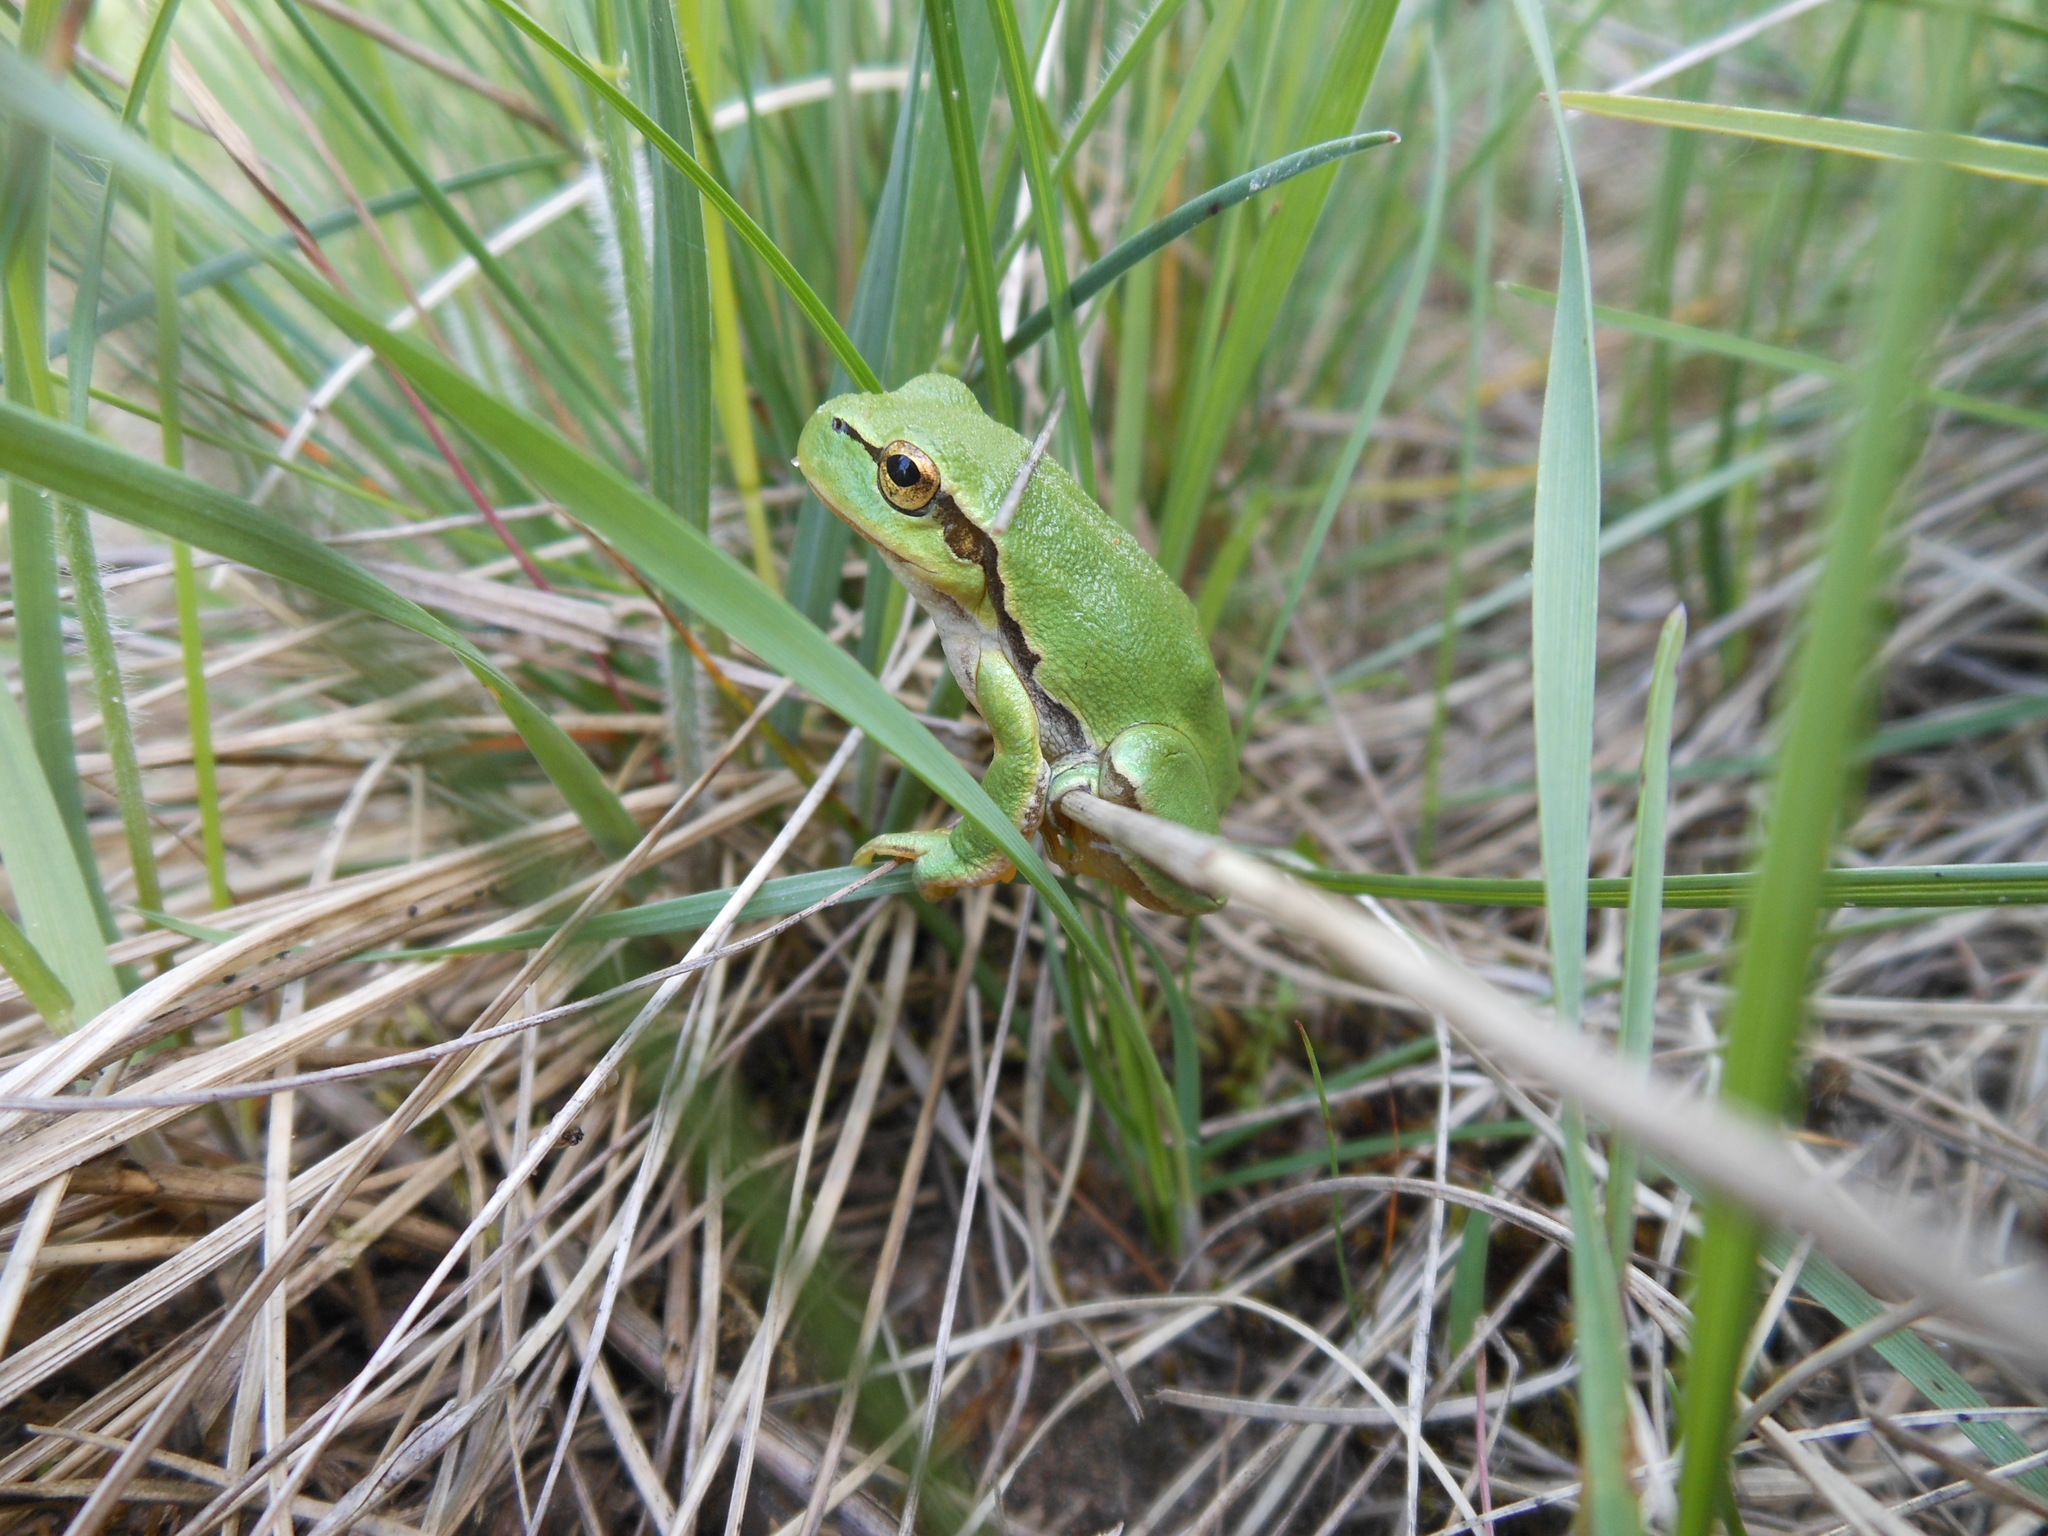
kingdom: Animalia
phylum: Chordata
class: Amphibia
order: Anura
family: Hylidae
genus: Hyla
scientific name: Hyla orientalis
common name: Caucasian treefrog
